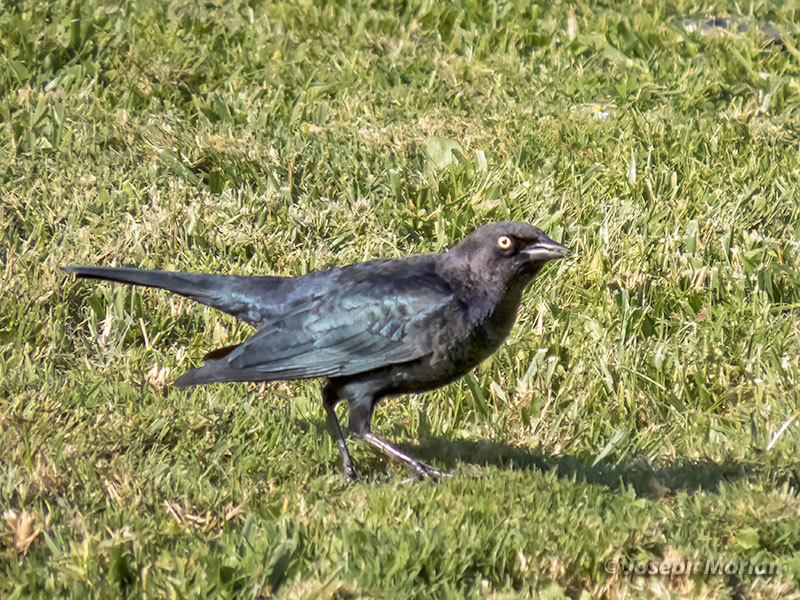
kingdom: Animalia
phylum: Chordata
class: Aves
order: Passeriformes
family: Icteridae
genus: Euphagus
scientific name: Euphagus cyanocephalus
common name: Brewer's blackbird
